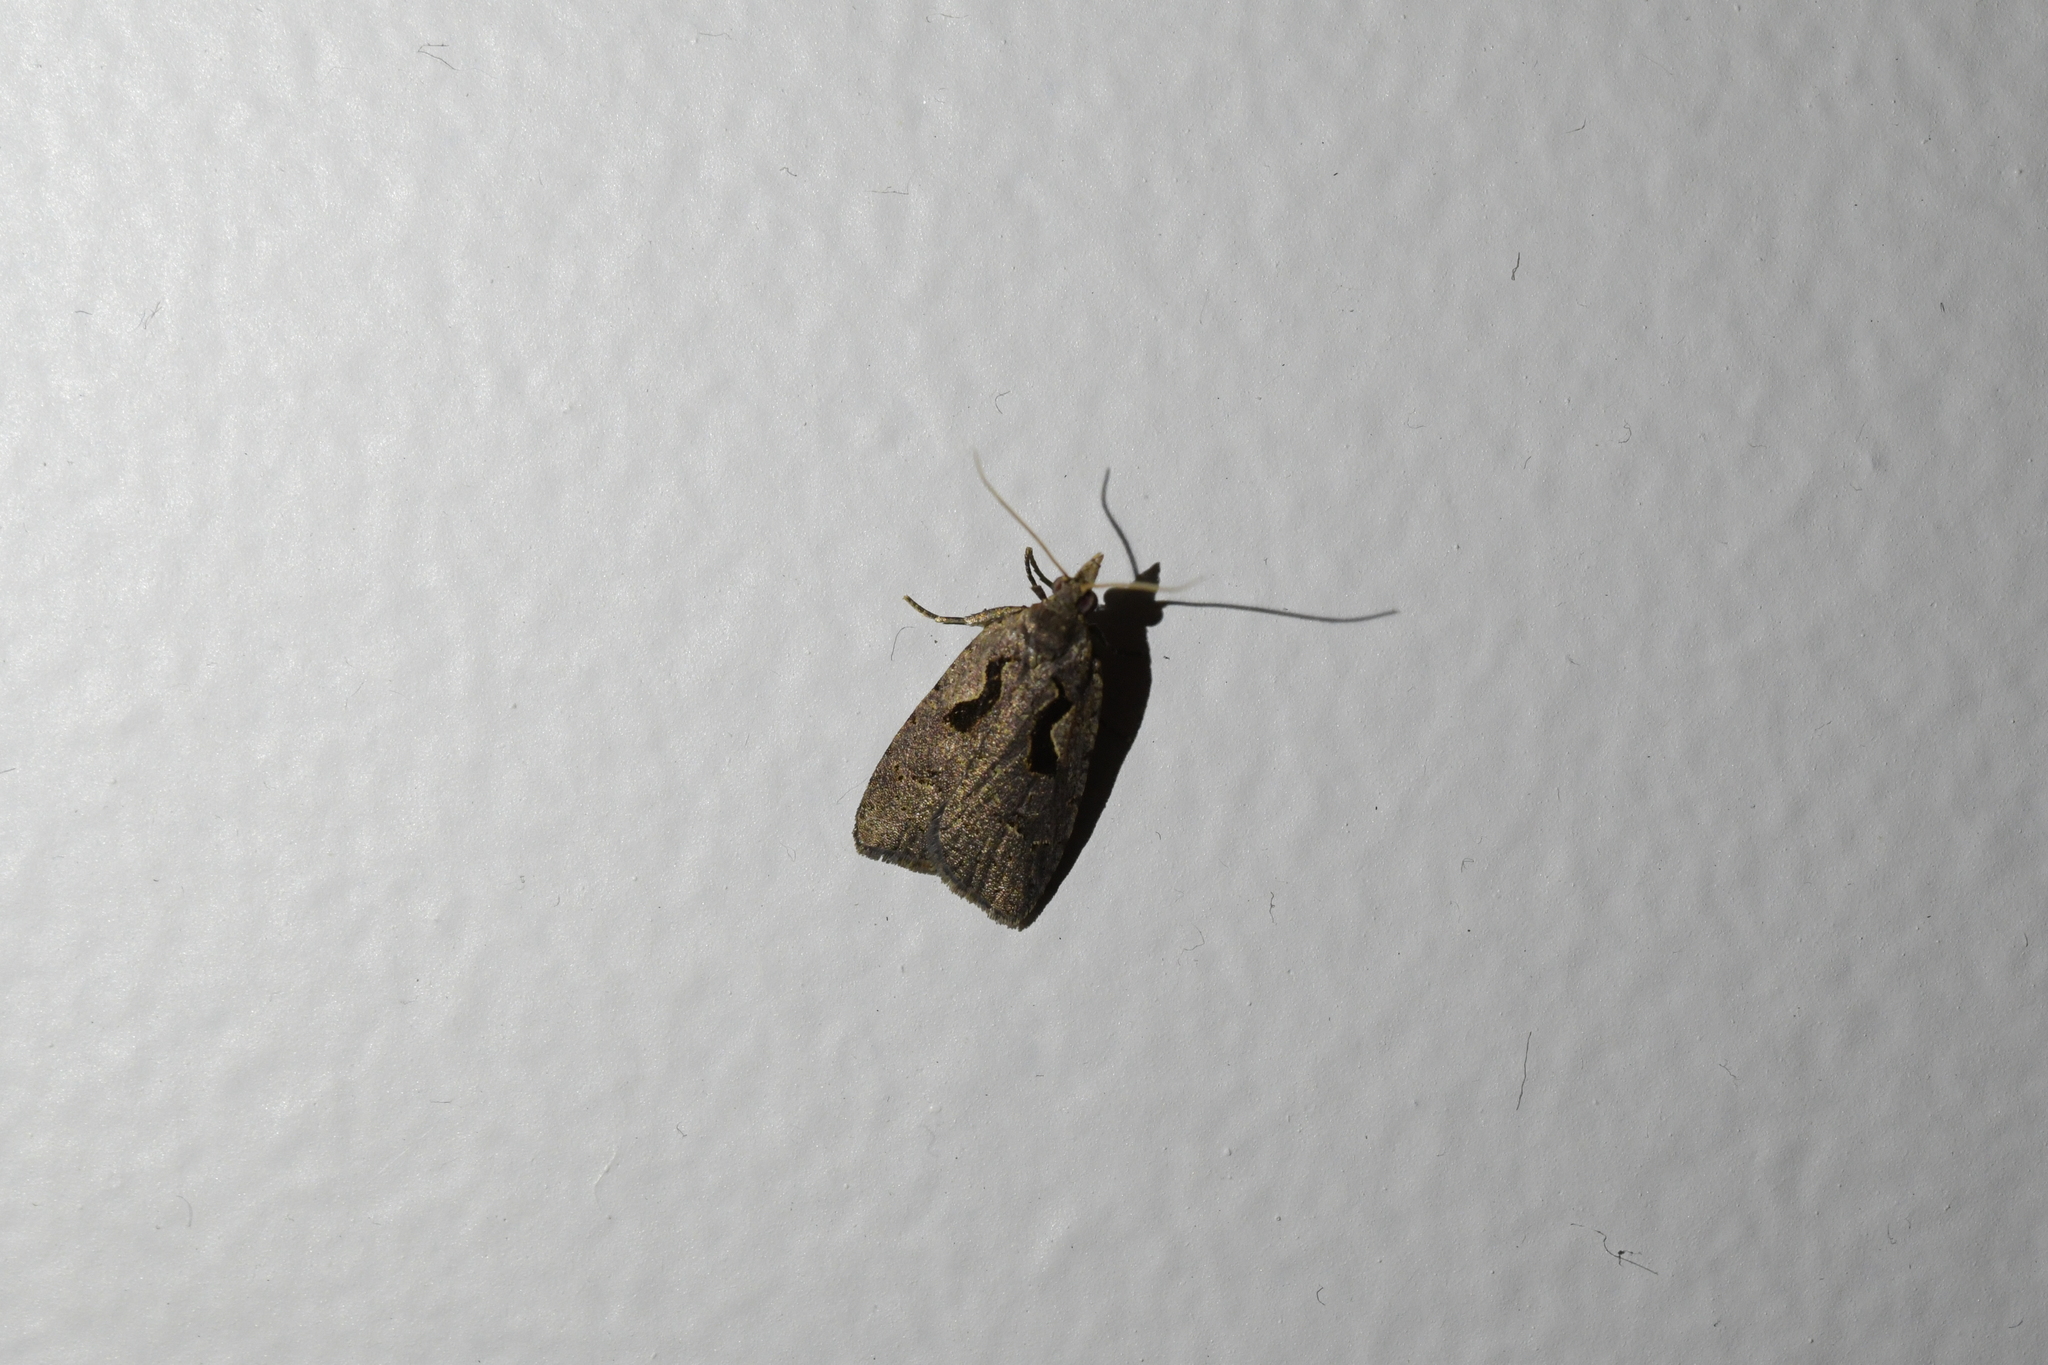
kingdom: Animalia
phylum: Arthropoda
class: Insecta
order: Lepidoptera
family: Tortricidae
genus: Cnephasia
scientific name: Cnephasia jactatana
